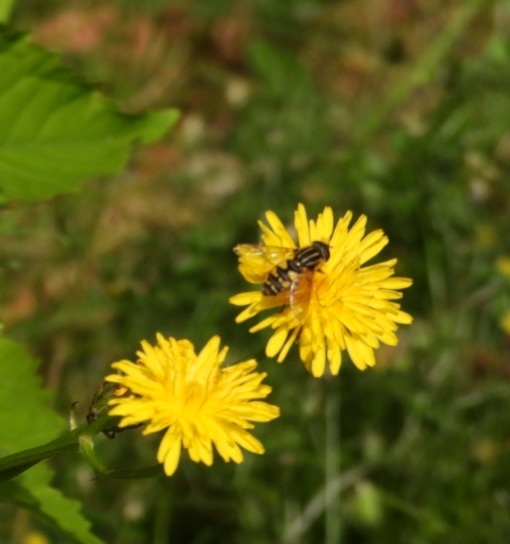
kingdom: Animalia
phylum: Arthropoda
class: Insecta
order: Diptera
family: Syrphidae
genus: Helophilus
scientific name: Helophilus pendulus
